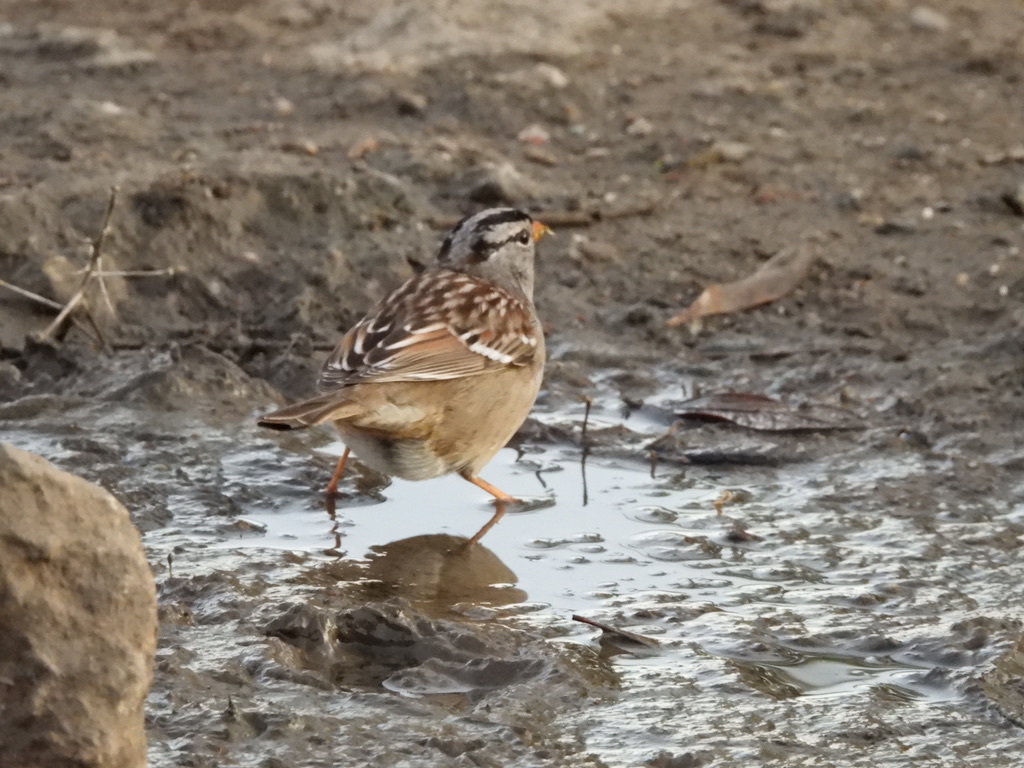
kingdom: Animalia
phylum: Chordata
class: Aves
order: Passeriformes
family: Passerellidae
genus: Zonotrichia
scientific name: Zonotrichia leucophrys
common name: White-crowned sparrow
